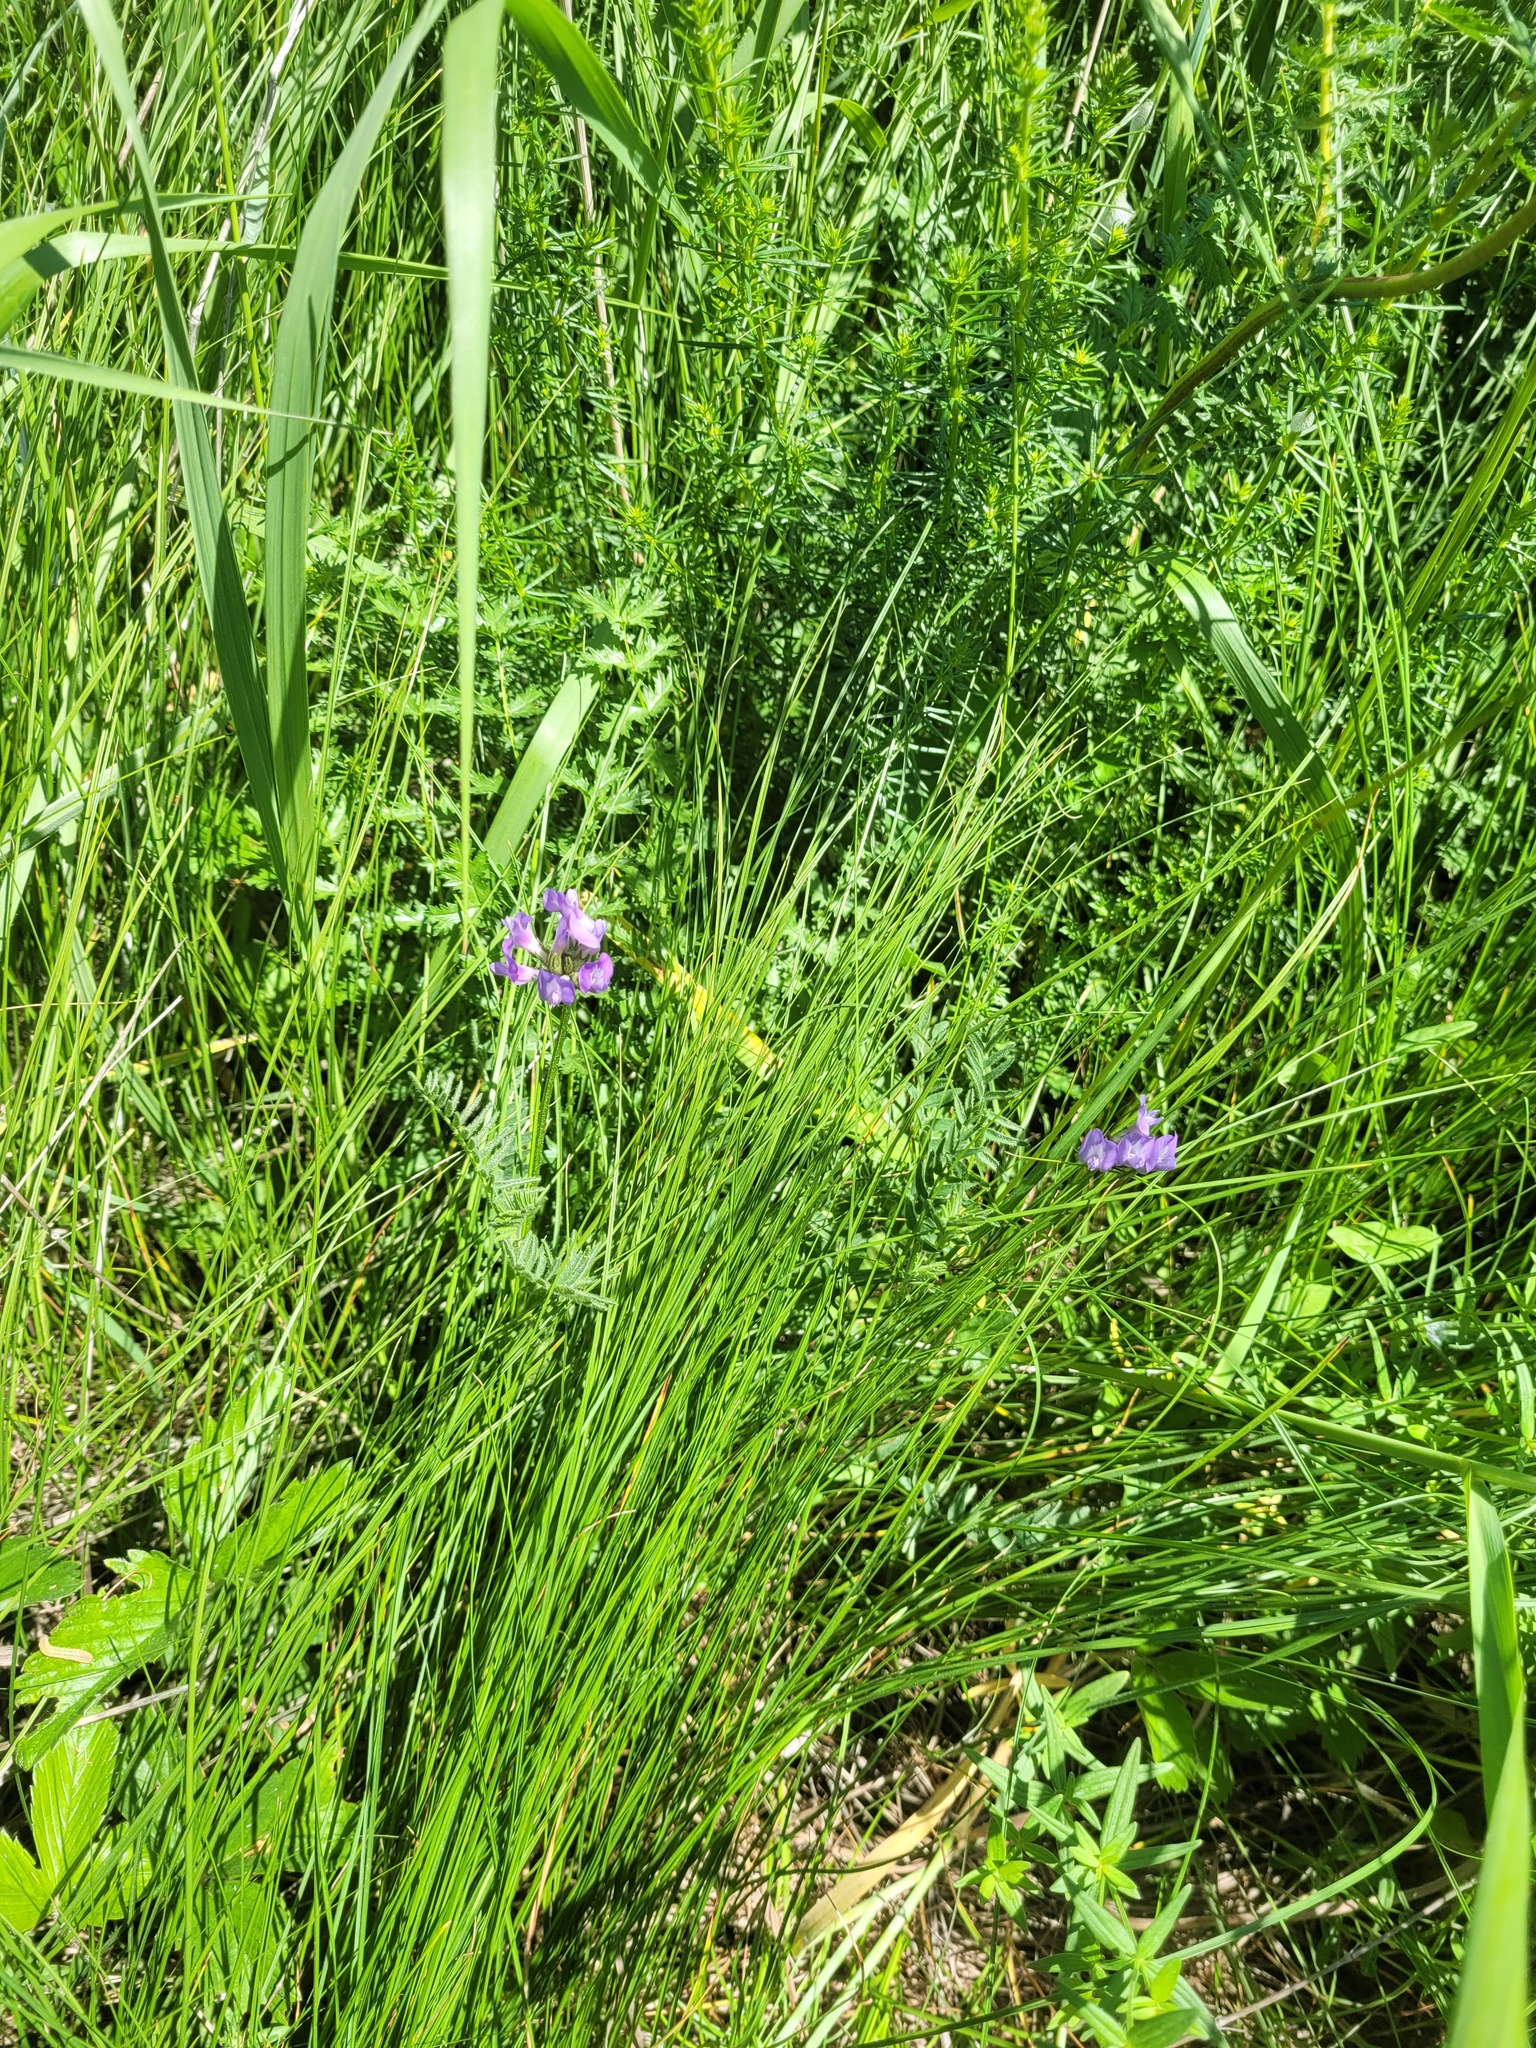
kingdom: Plantae
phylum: Tracheophyta
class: Magnoliopsida
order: Fabales
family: Fabaceae
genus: Astragalus
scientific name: Astragalus danicus
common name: Purple milk-vetch
